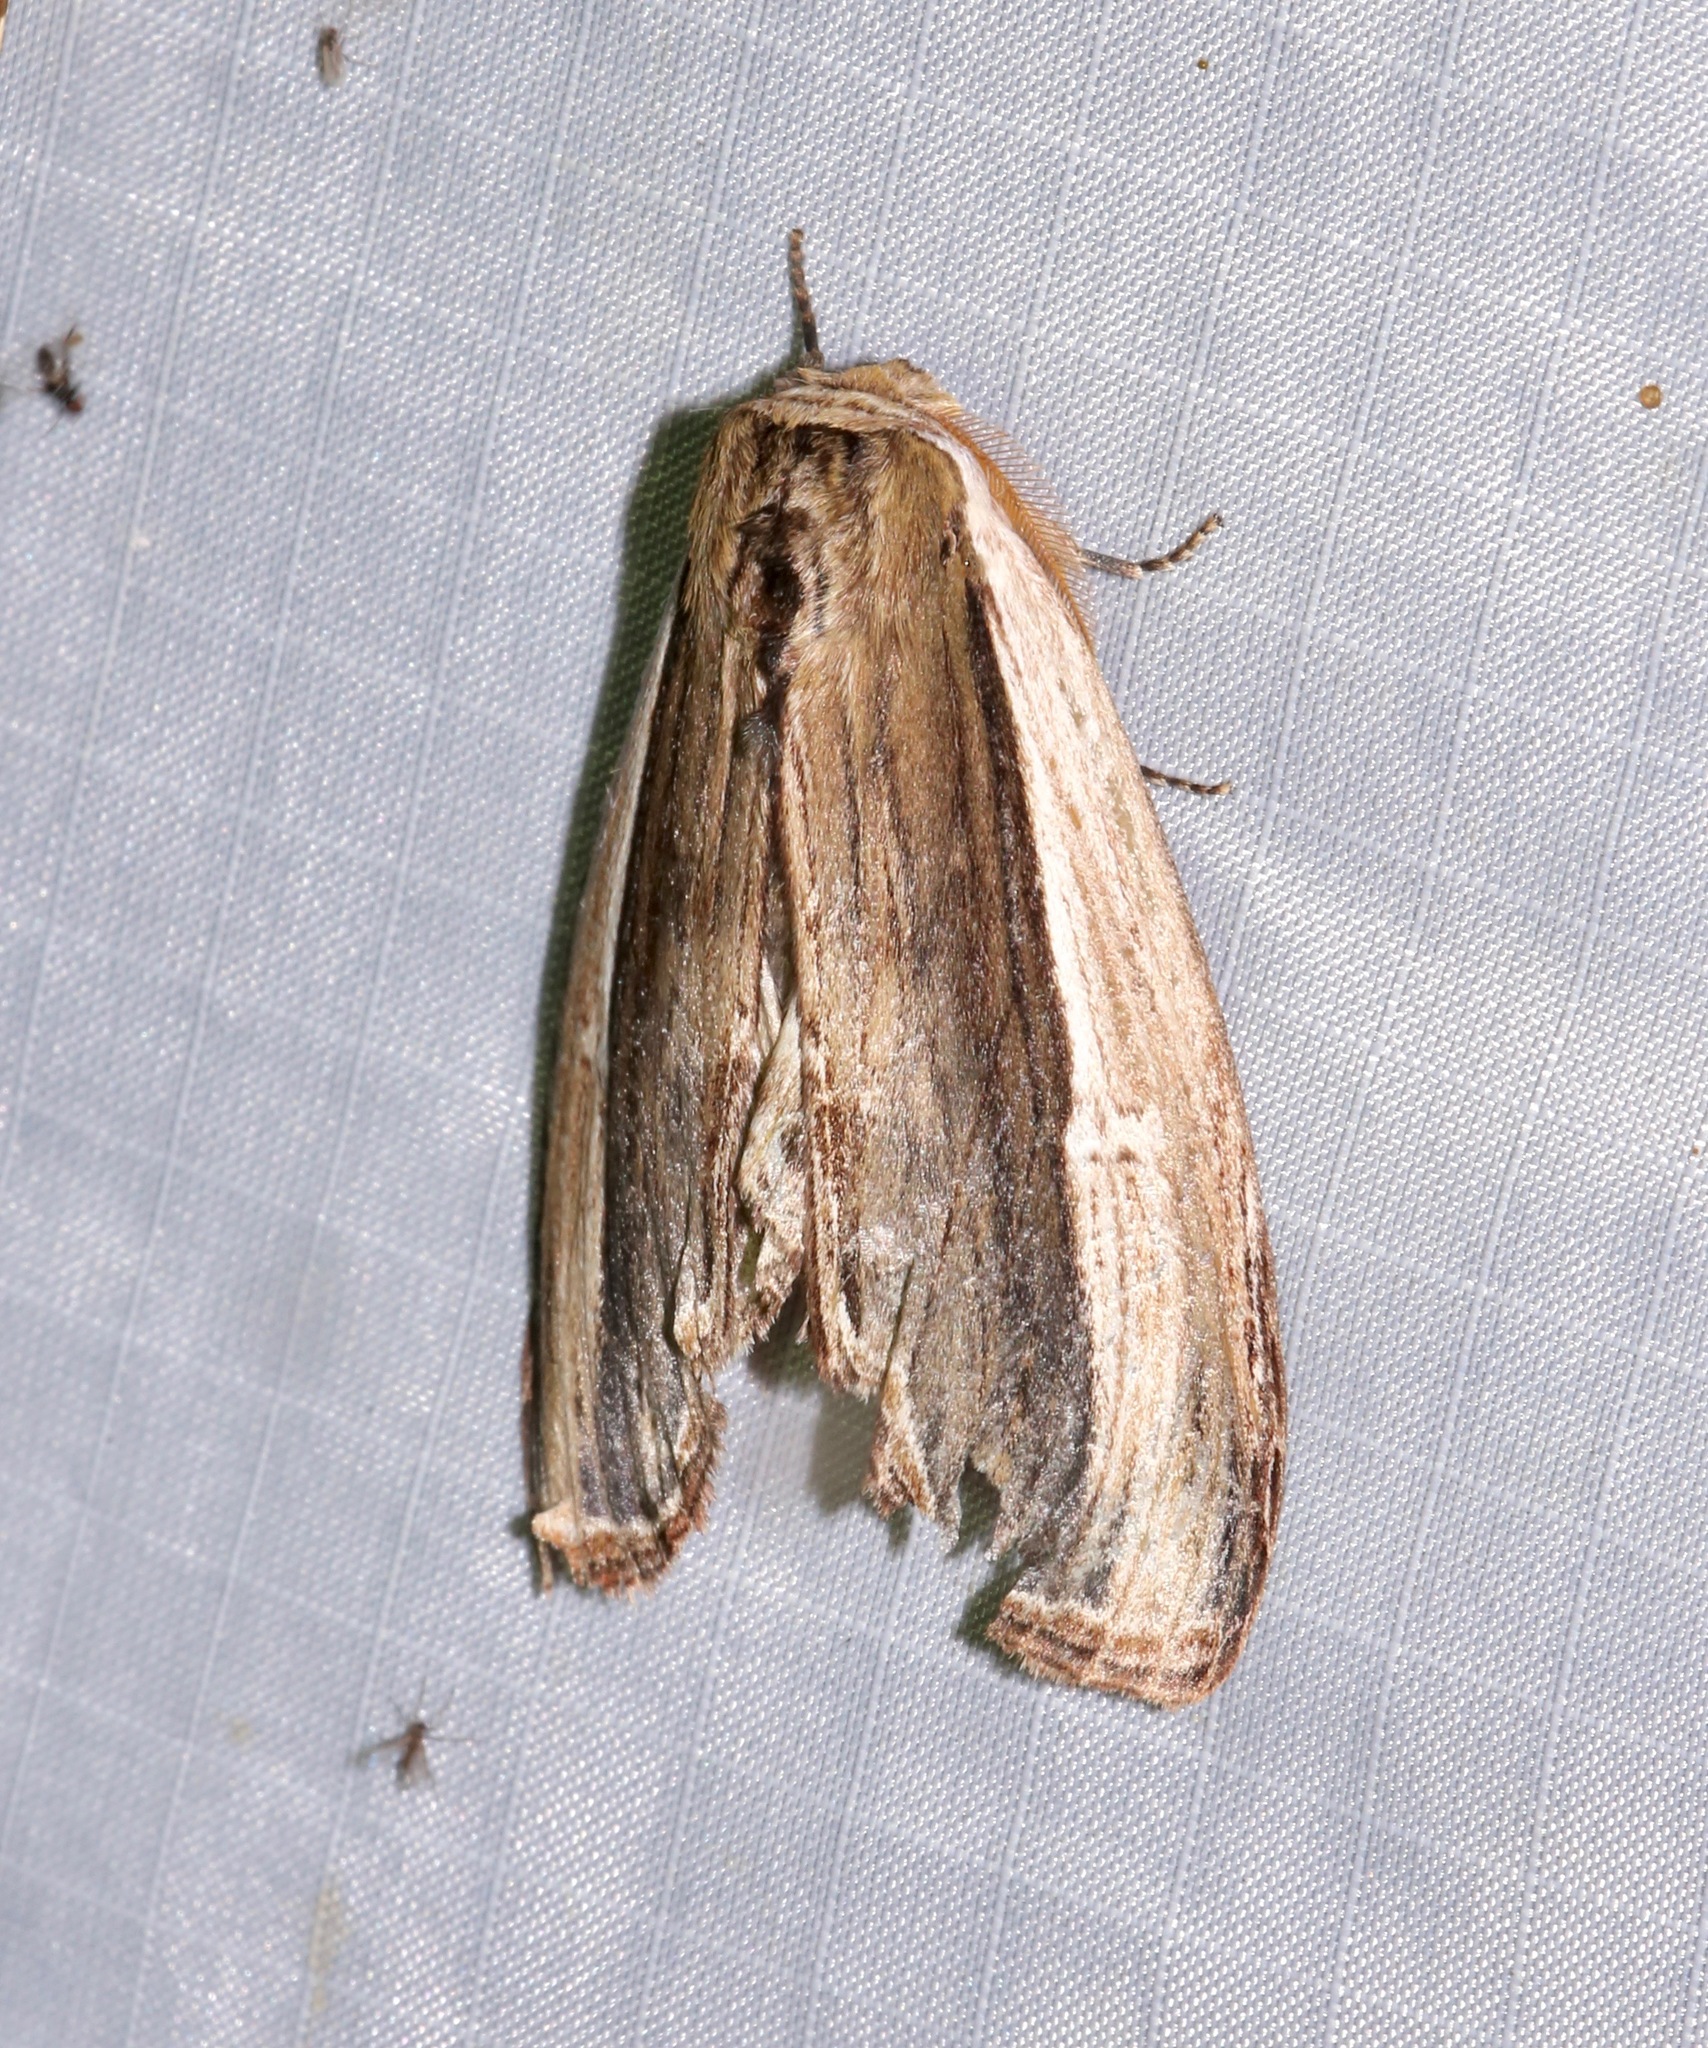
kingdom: Animalia
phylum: Arthropoda
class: Insecta
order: Lepidoptera
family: Notodontidae
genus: Truncaptera
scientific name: Truncaptera inopinata
